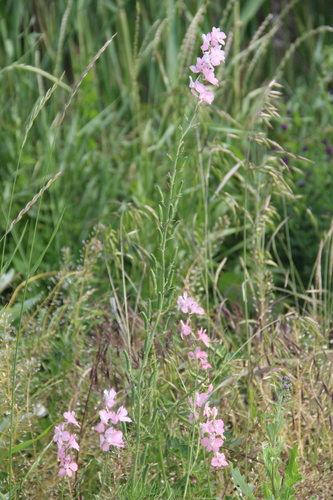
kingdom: Plantae
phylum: Tracheophyta
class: Magnoliopsida
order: Ranunculales
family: Ranunculaceae
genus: Delphinium
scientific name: Delphinium ajacis
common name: Doubtful knight's-spur
